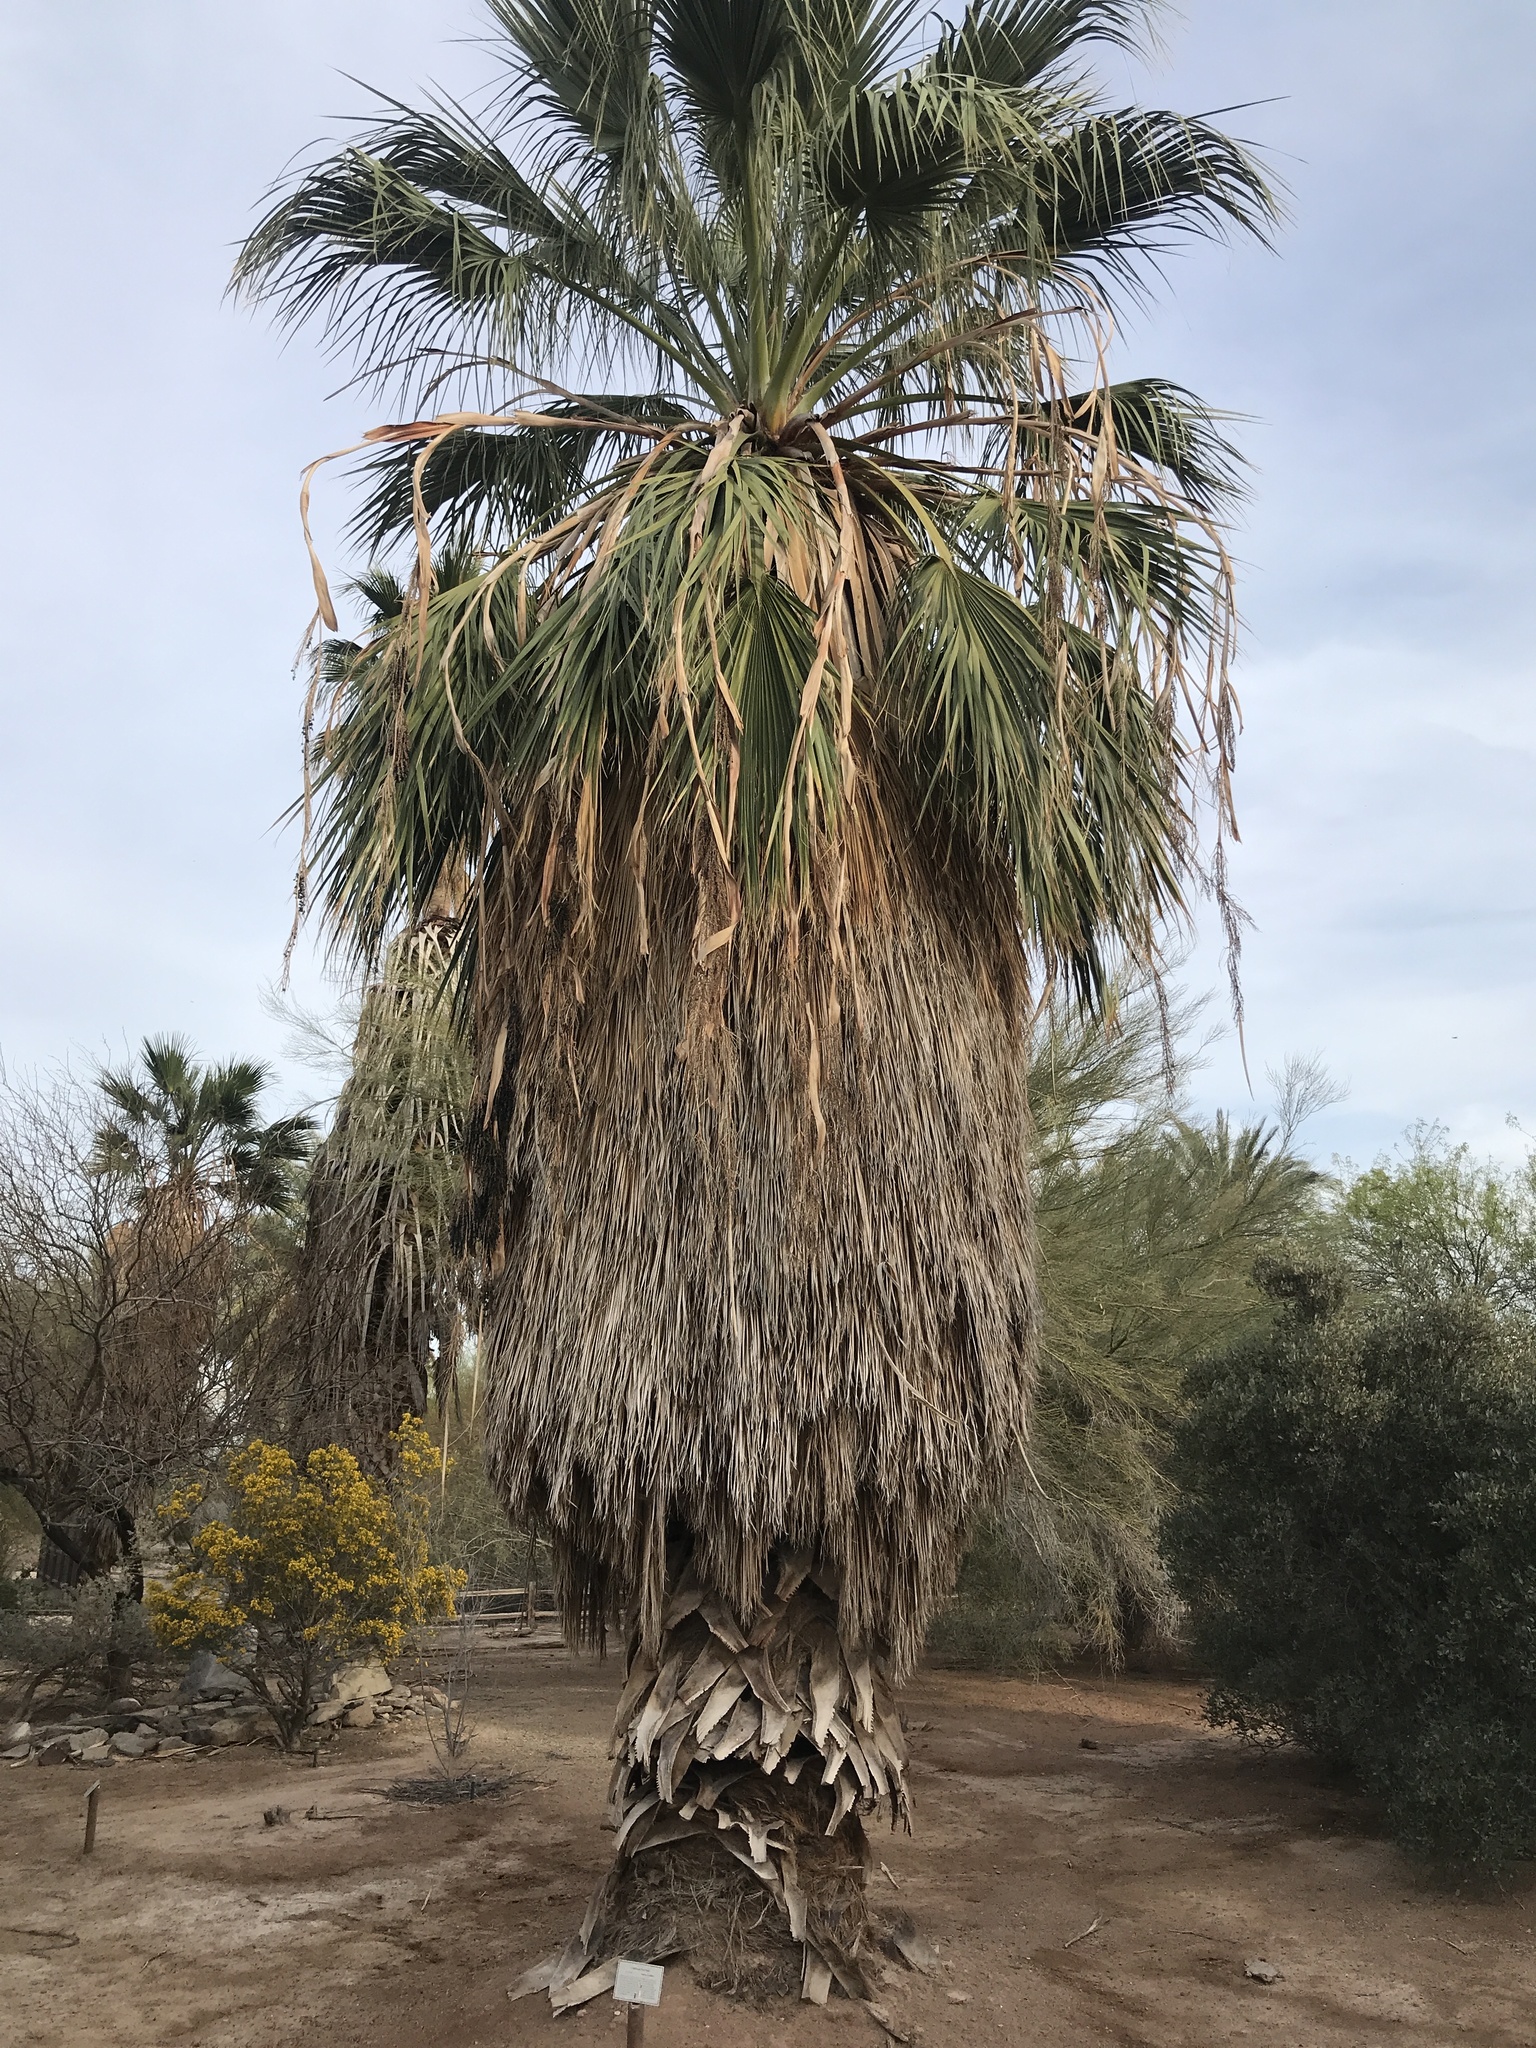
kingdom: Plantae
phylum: Tracheophyta
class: Liliopsida
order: Arecales
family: Arecaceae
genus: Washingtonia
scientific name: Washingtonia filifera
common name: California fan palm
